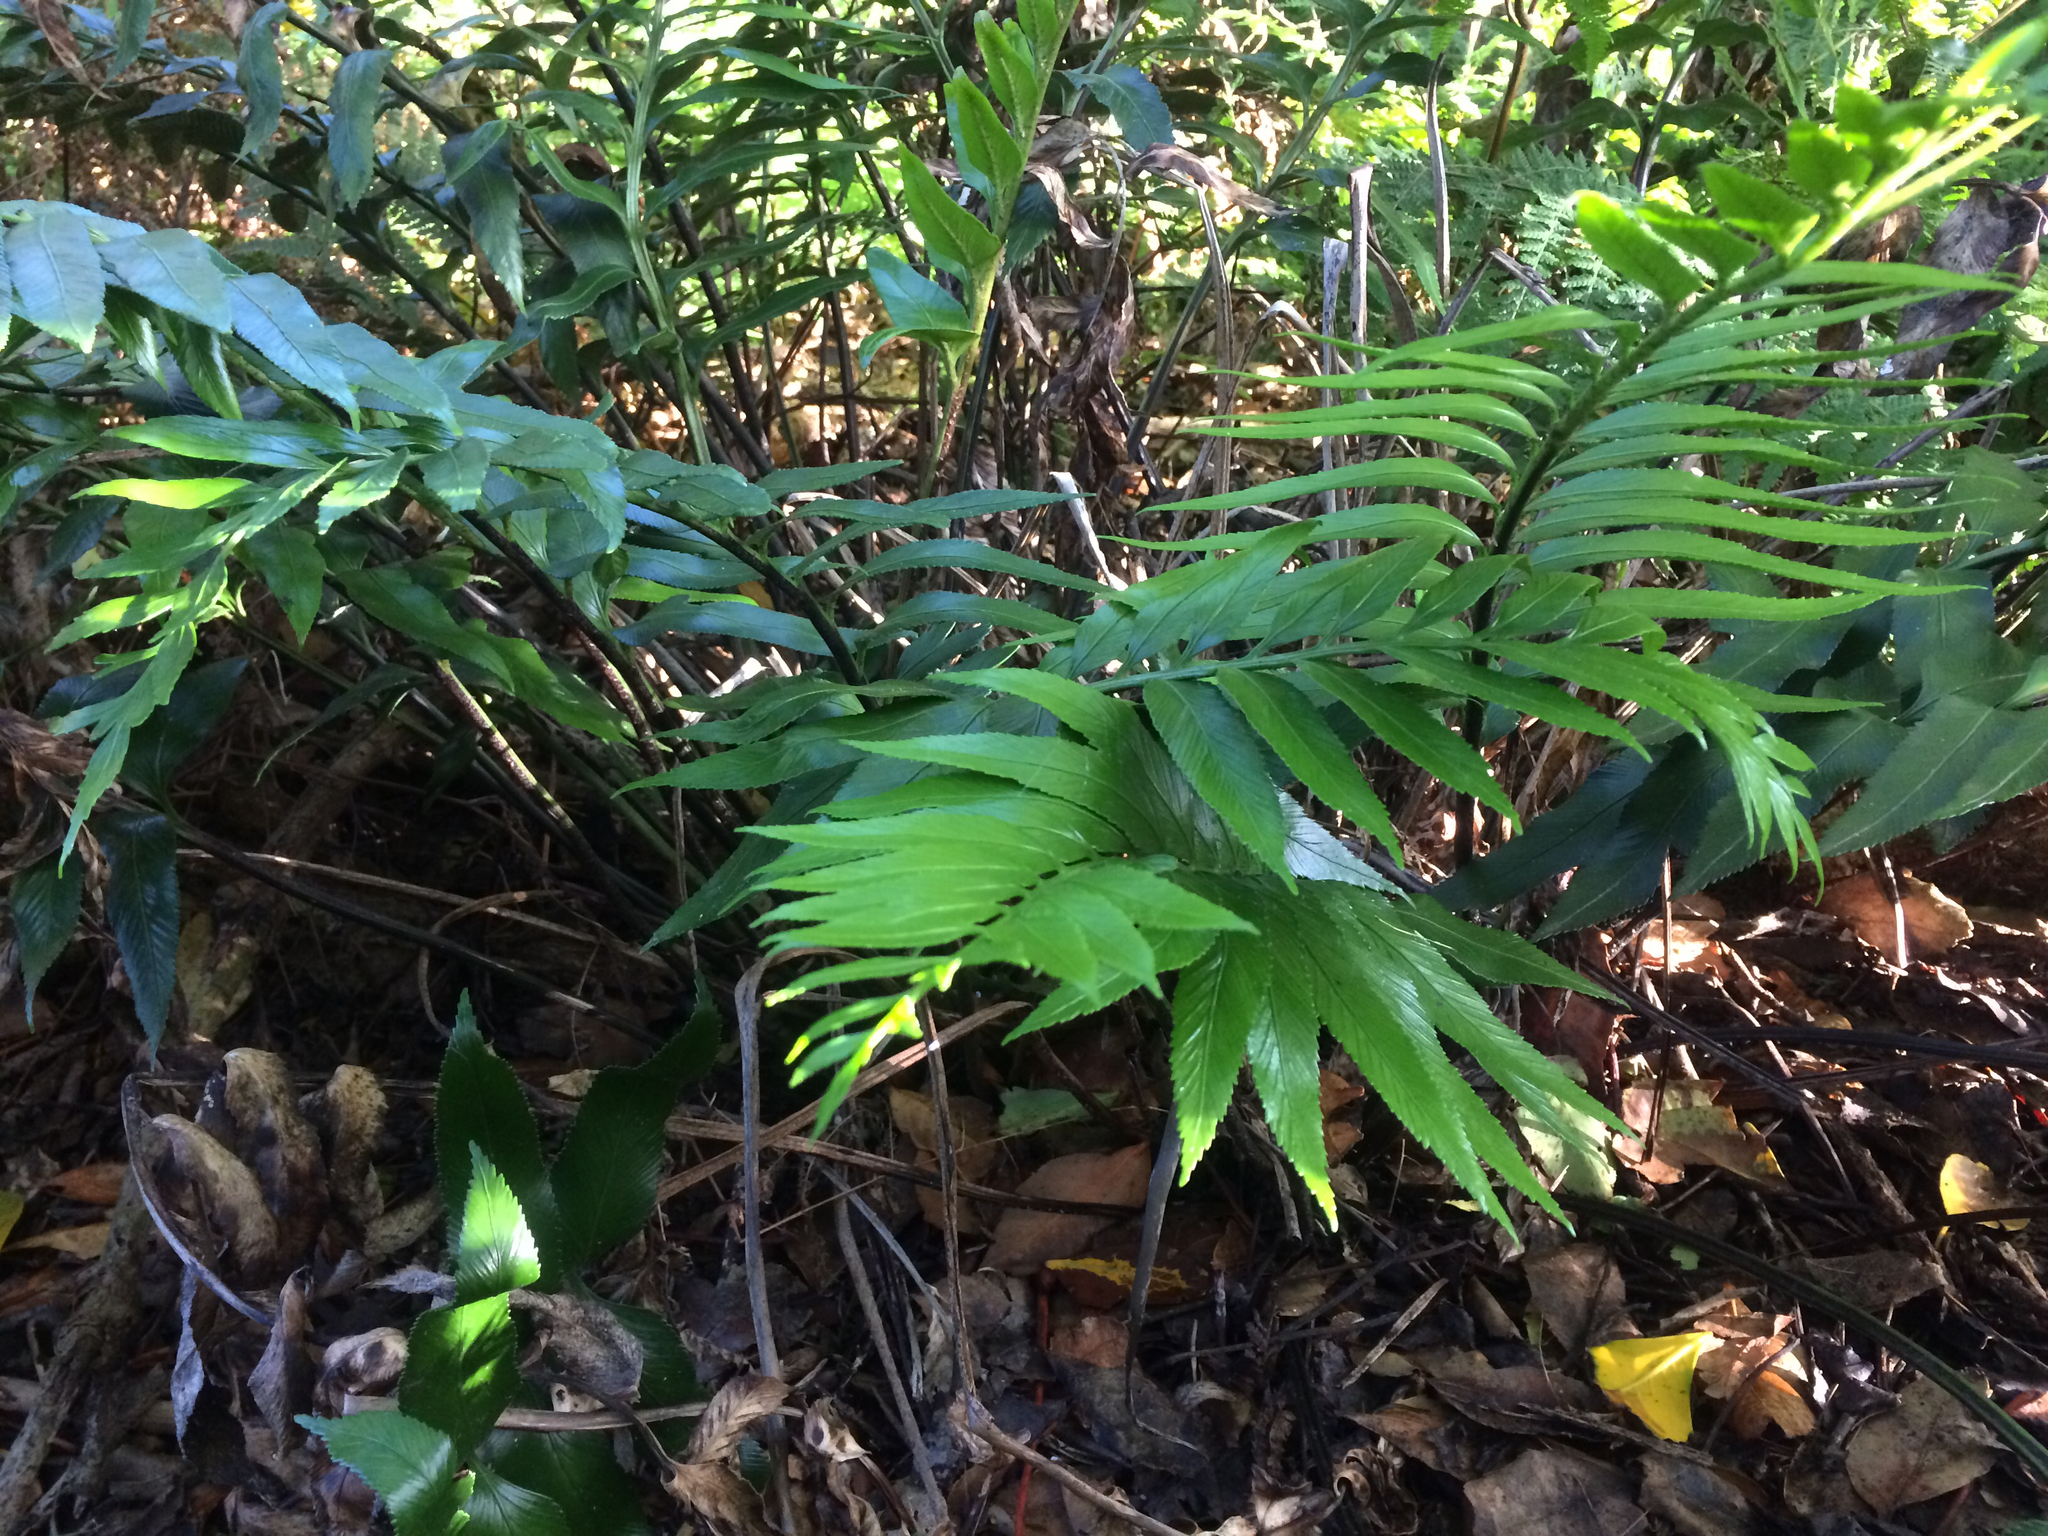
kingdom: Plantae
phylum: Tracheophyta
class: Polypodiopsida
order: Polypodiales
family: Aspleniaceae
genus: Asplenium
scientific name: Asplenium obtusatum
